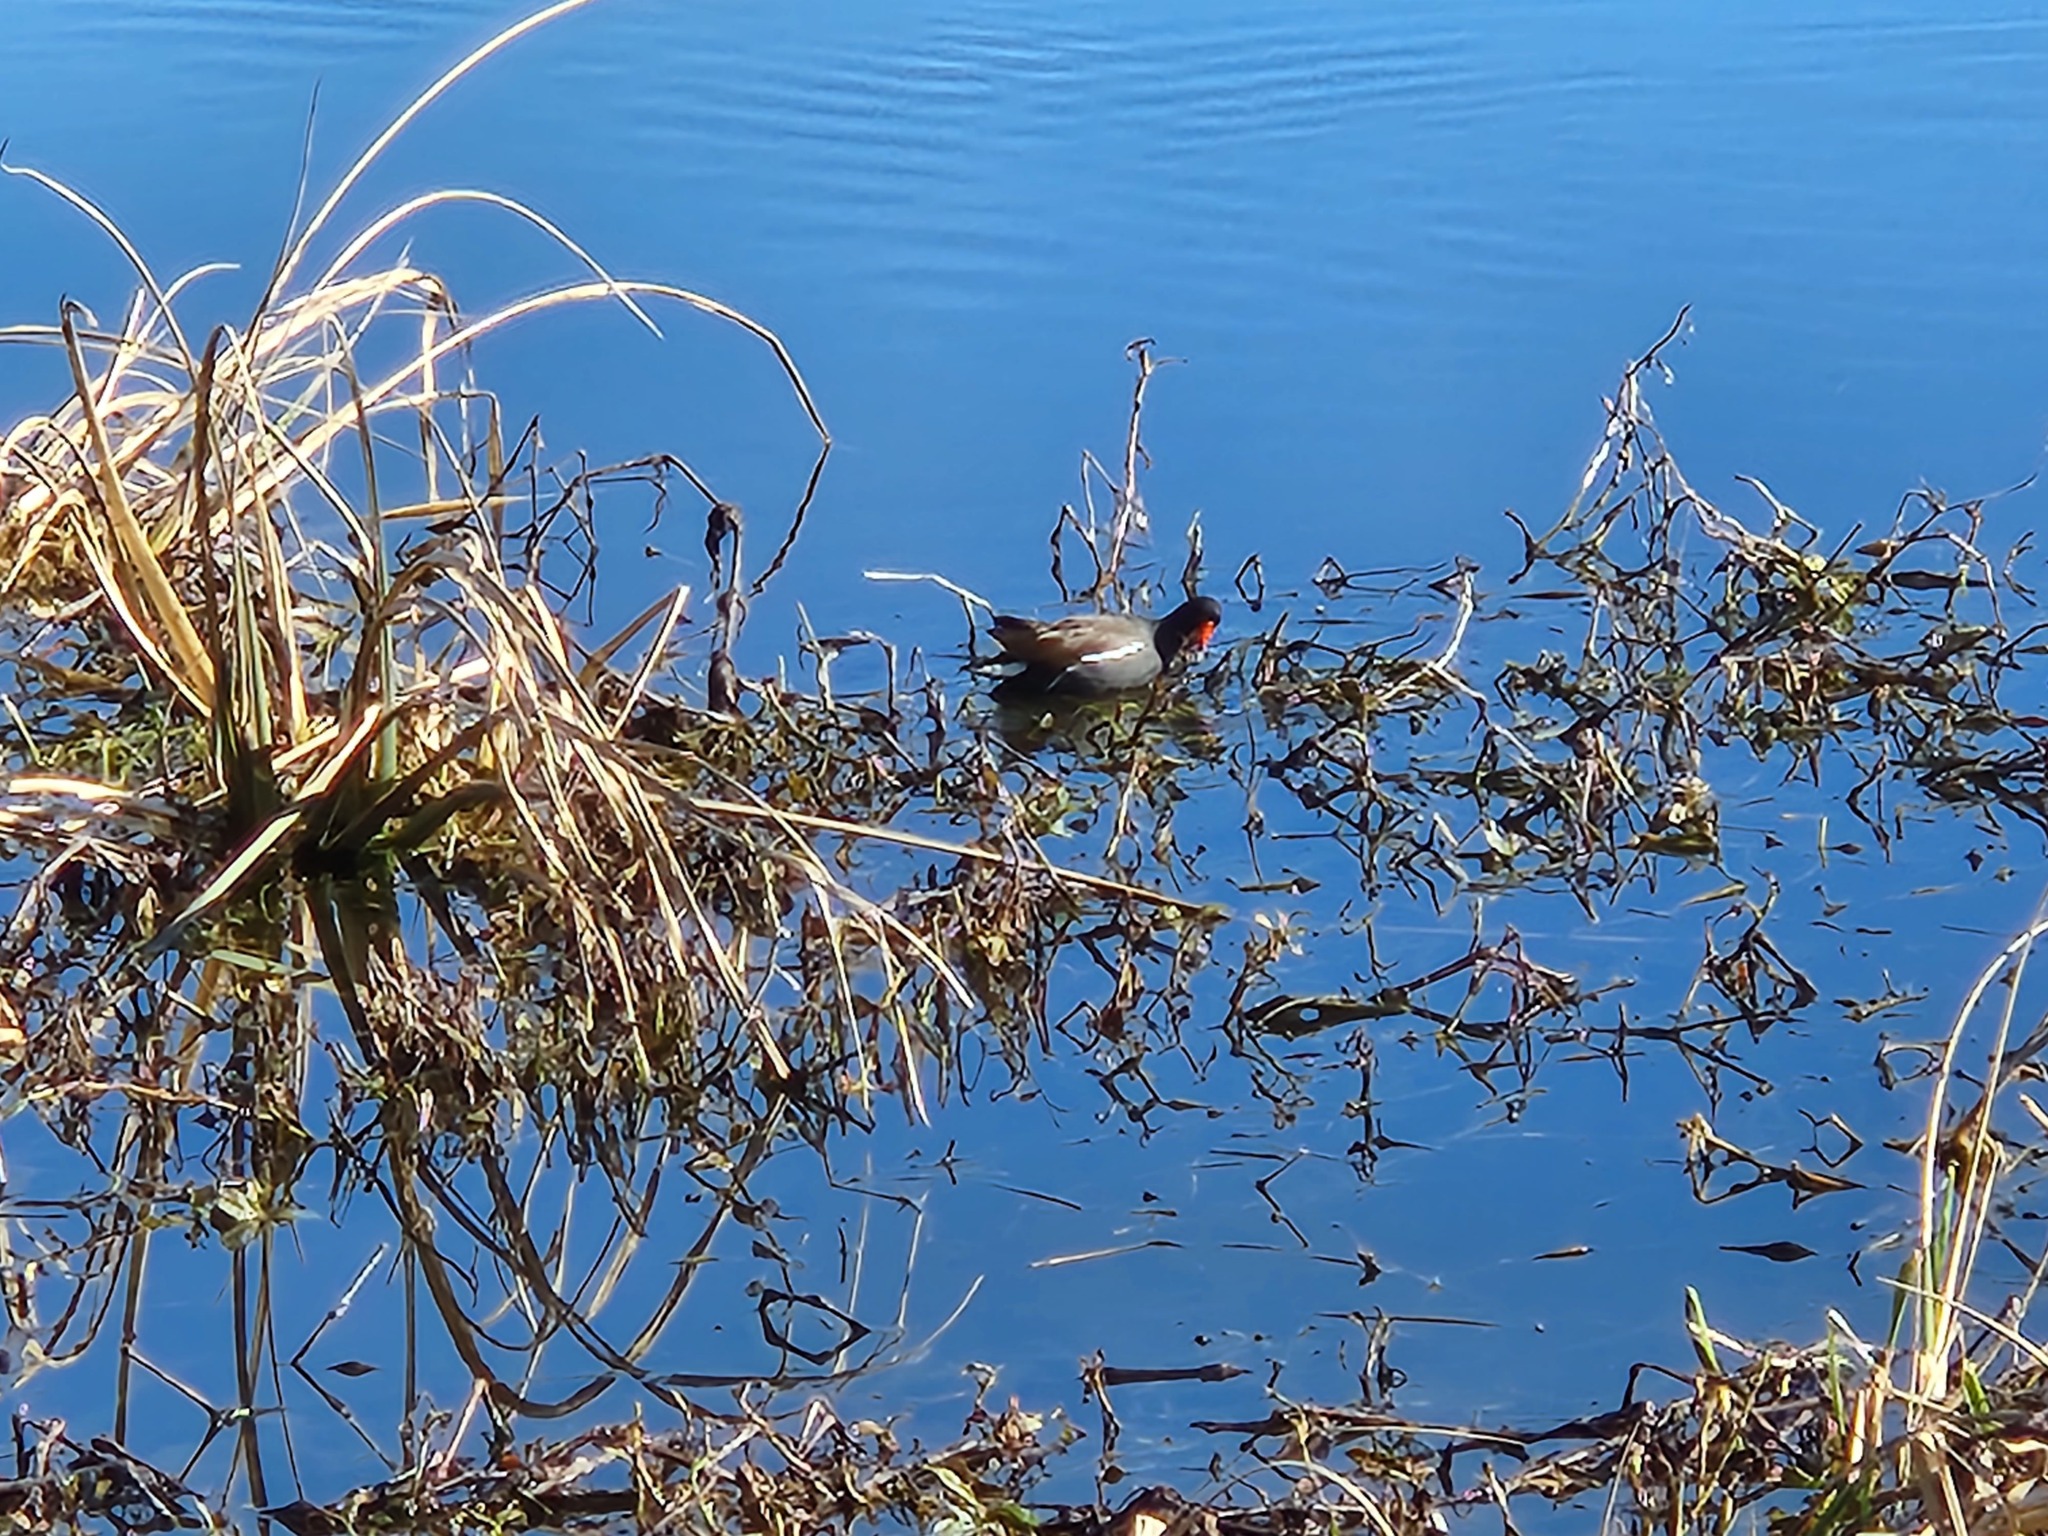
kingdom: Animalia
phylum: Chordata
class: Aves
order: Gruiformes
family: Rallidae
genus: Gallinula
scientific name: Gallinula chloropus
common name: Common moorhen
